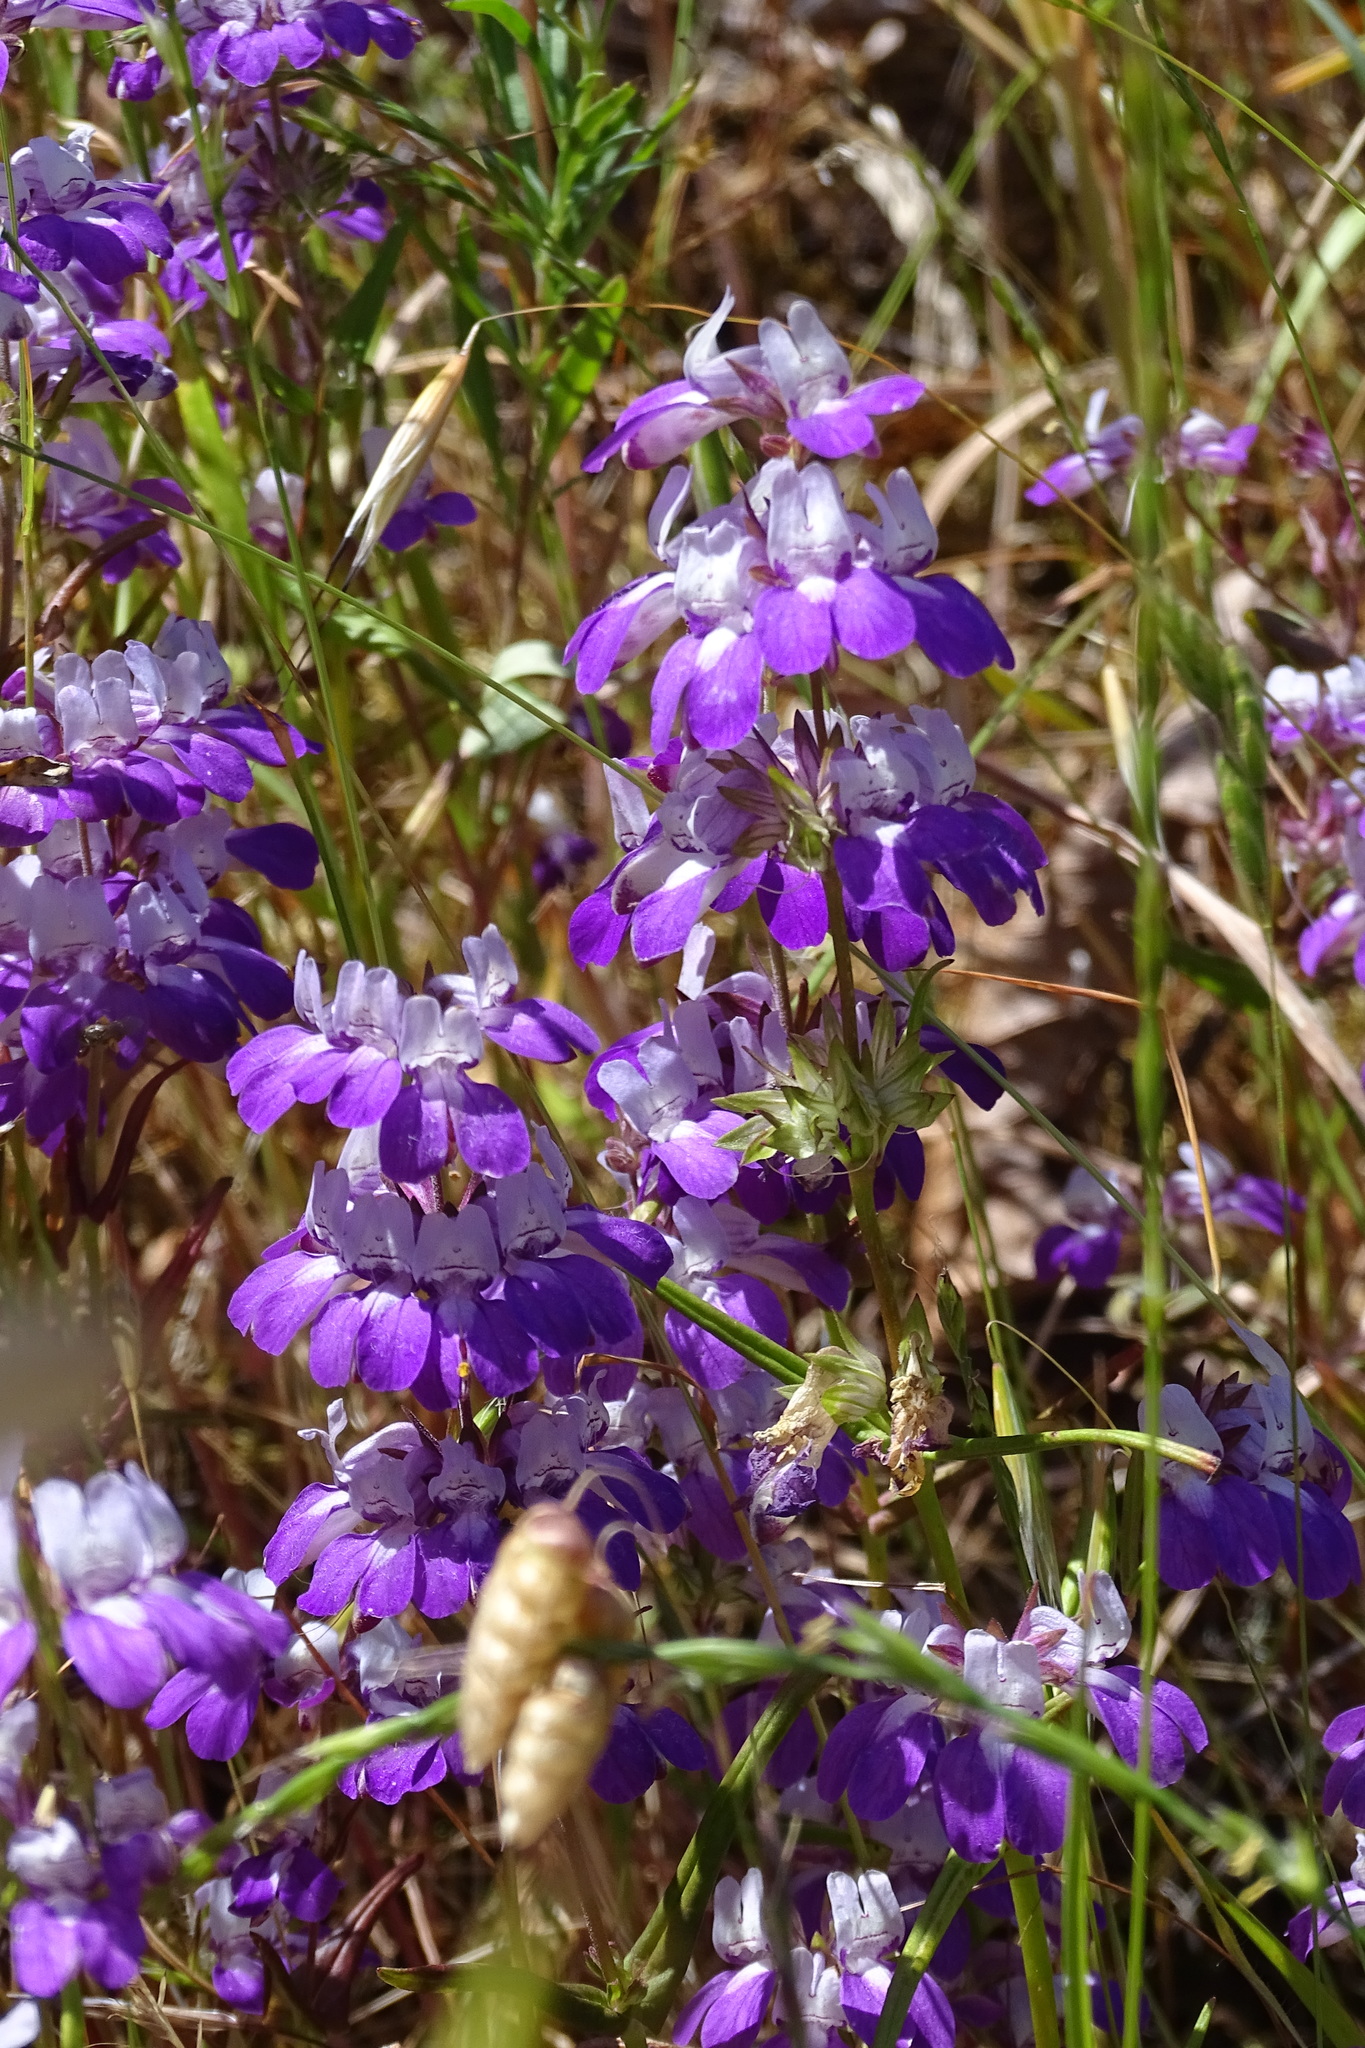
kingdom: Plantae
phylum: Tracheophyta
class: Magnoliopsida
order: Lamiales
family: Plantaginaceae
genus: Collinsia
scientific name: Collinsia heterophylla
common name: Chinese-houses
